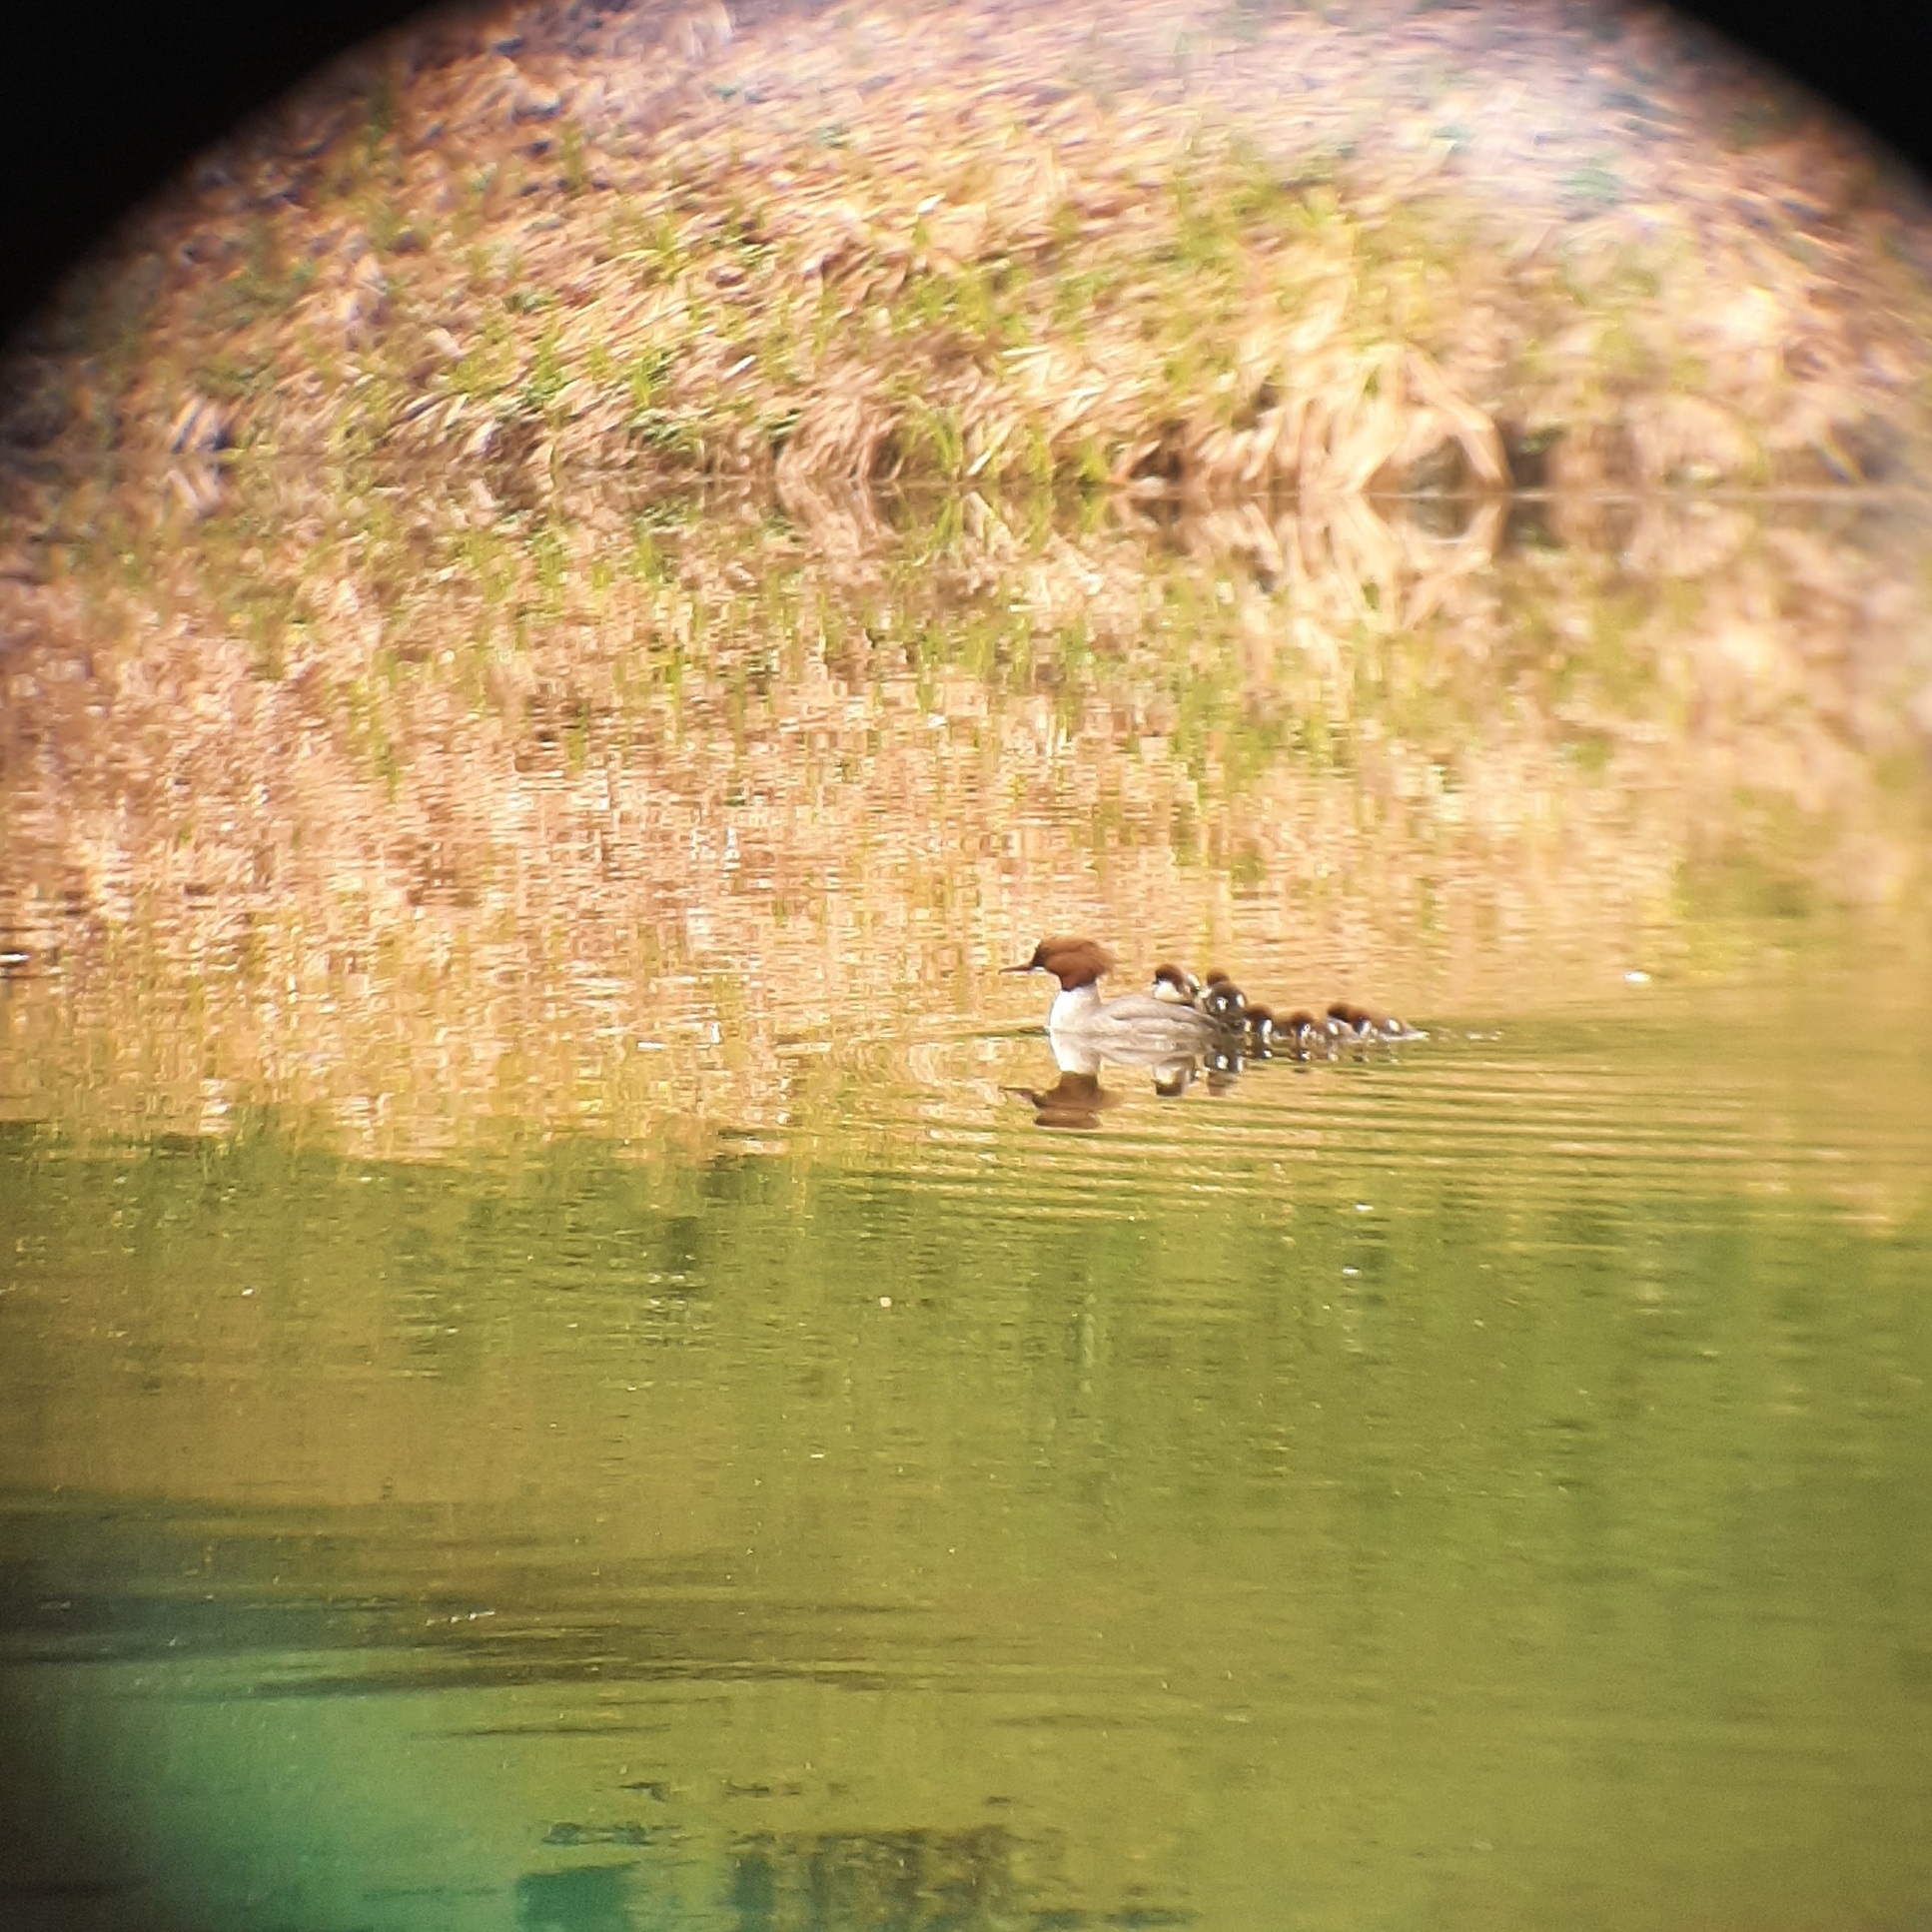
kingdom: Animalia
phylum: Chordata
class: Aves
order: Anseriformes
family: Anatidae
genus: Mergus
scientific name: Mergus merganser
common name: Common merganser
